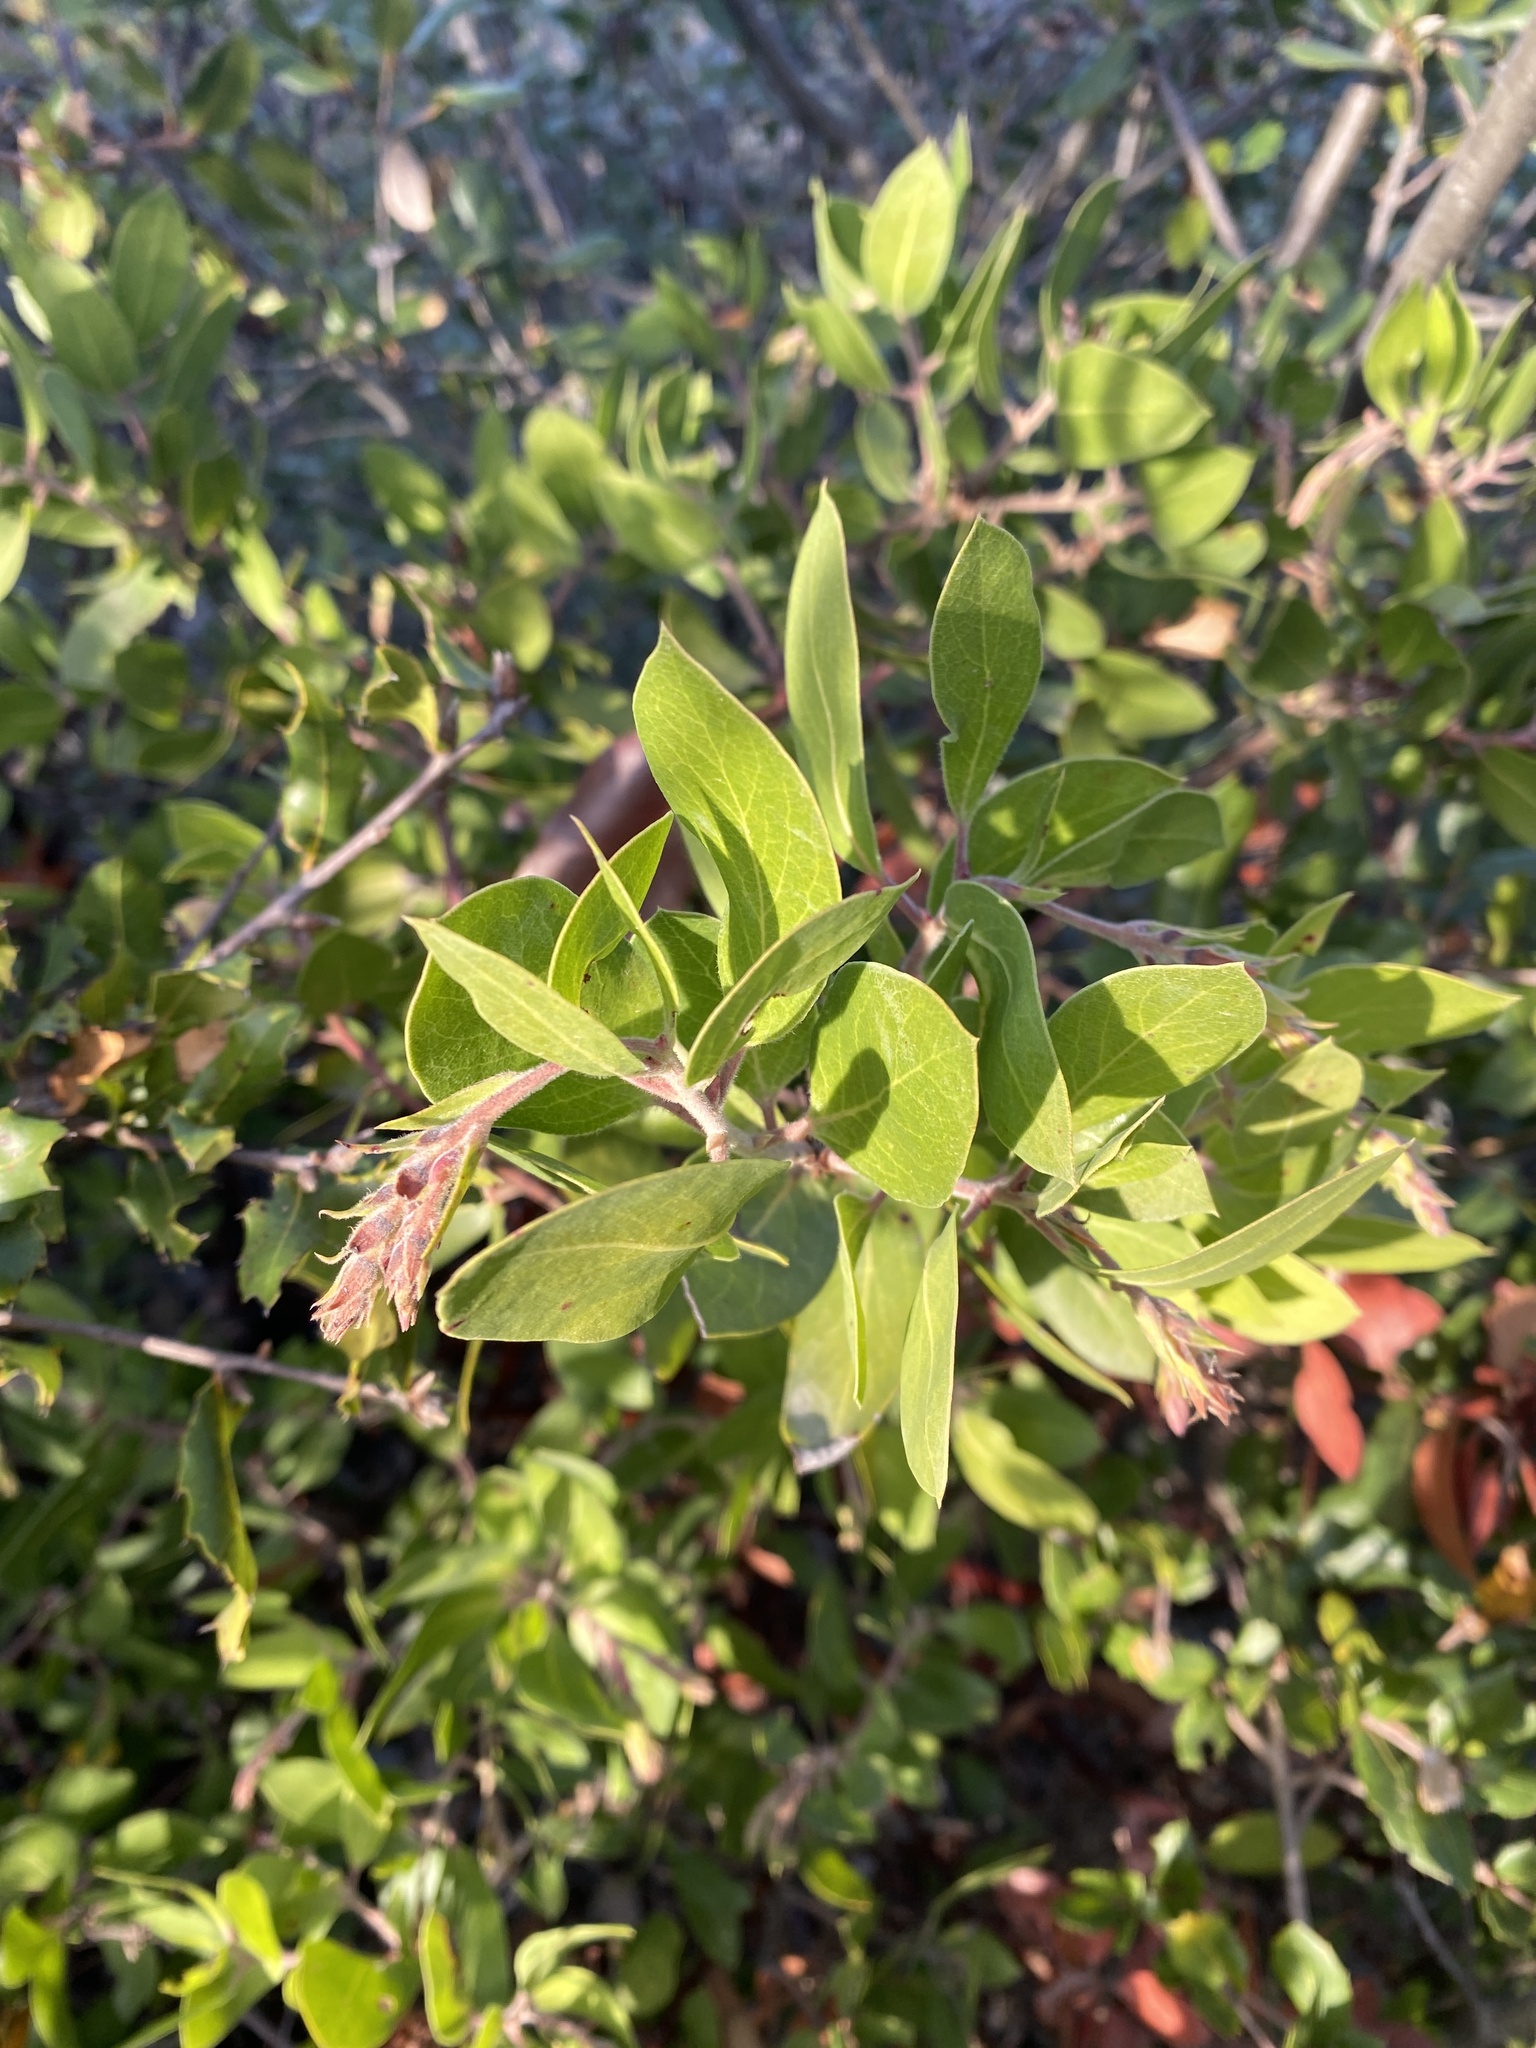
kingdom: Plantae
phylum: Tracheophyta
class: Magnoliopsida
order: Ericales
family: Ericaceae
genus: Arctostaphylos
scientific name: Arctostaphylos glandulosa
